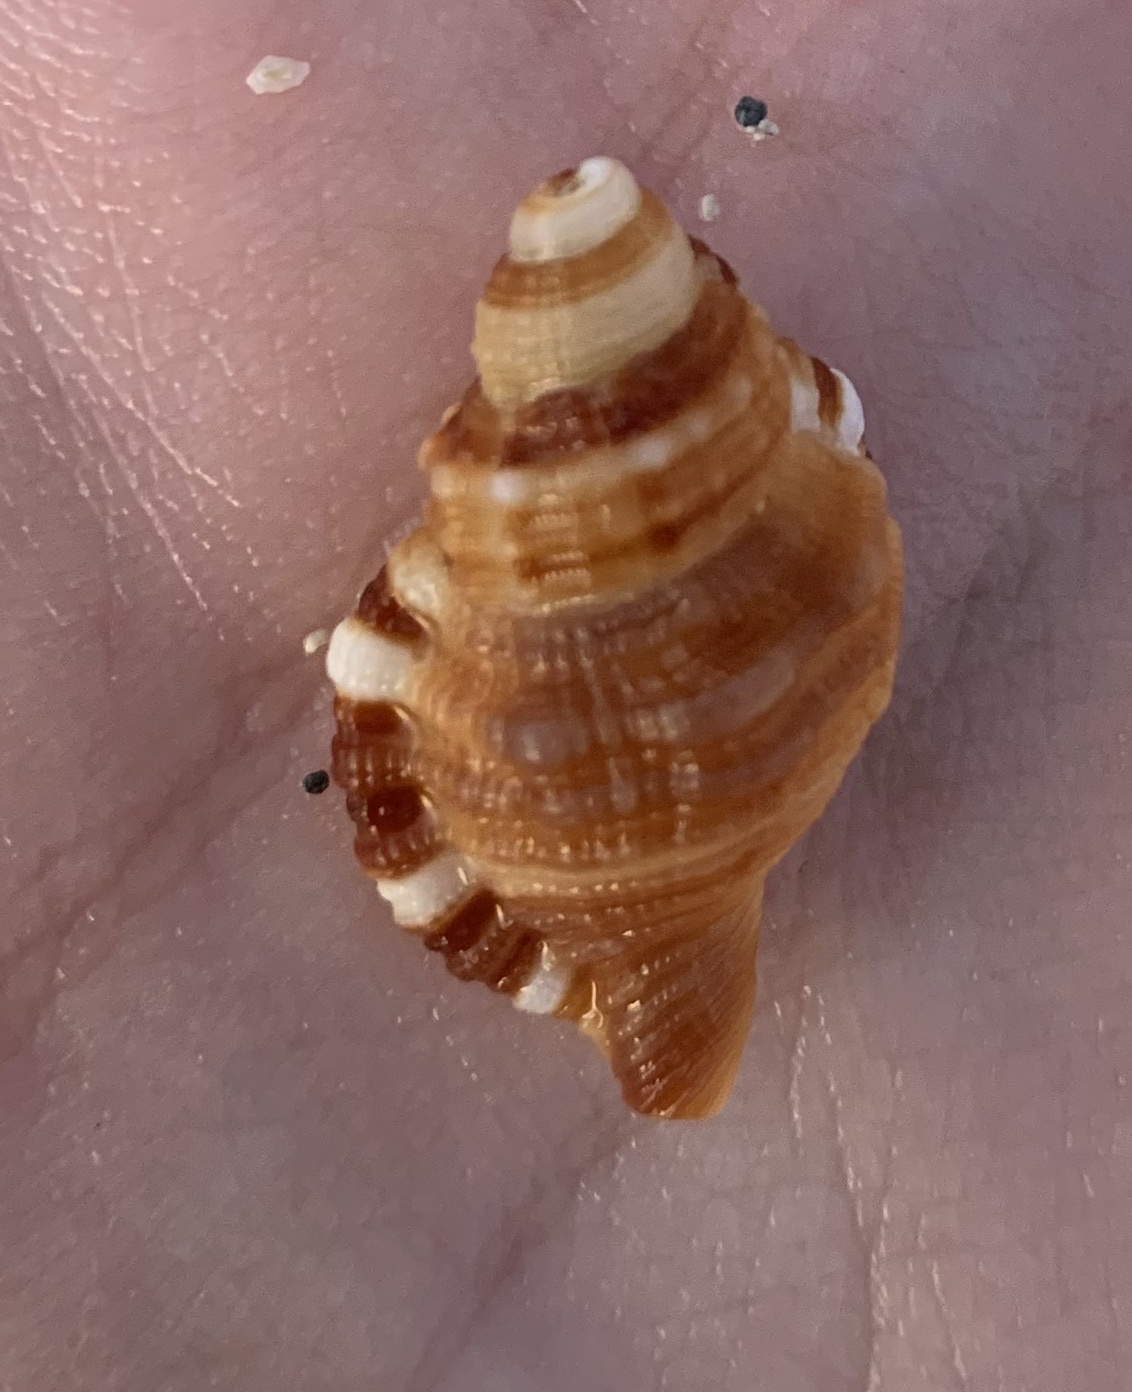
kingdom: Animalia
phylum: Mollusca
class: Gastropoda
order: Littorinimorpha
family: Cymatiidae
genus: Monoplex
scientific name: Monoplex pilearis
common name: Hairy triton
